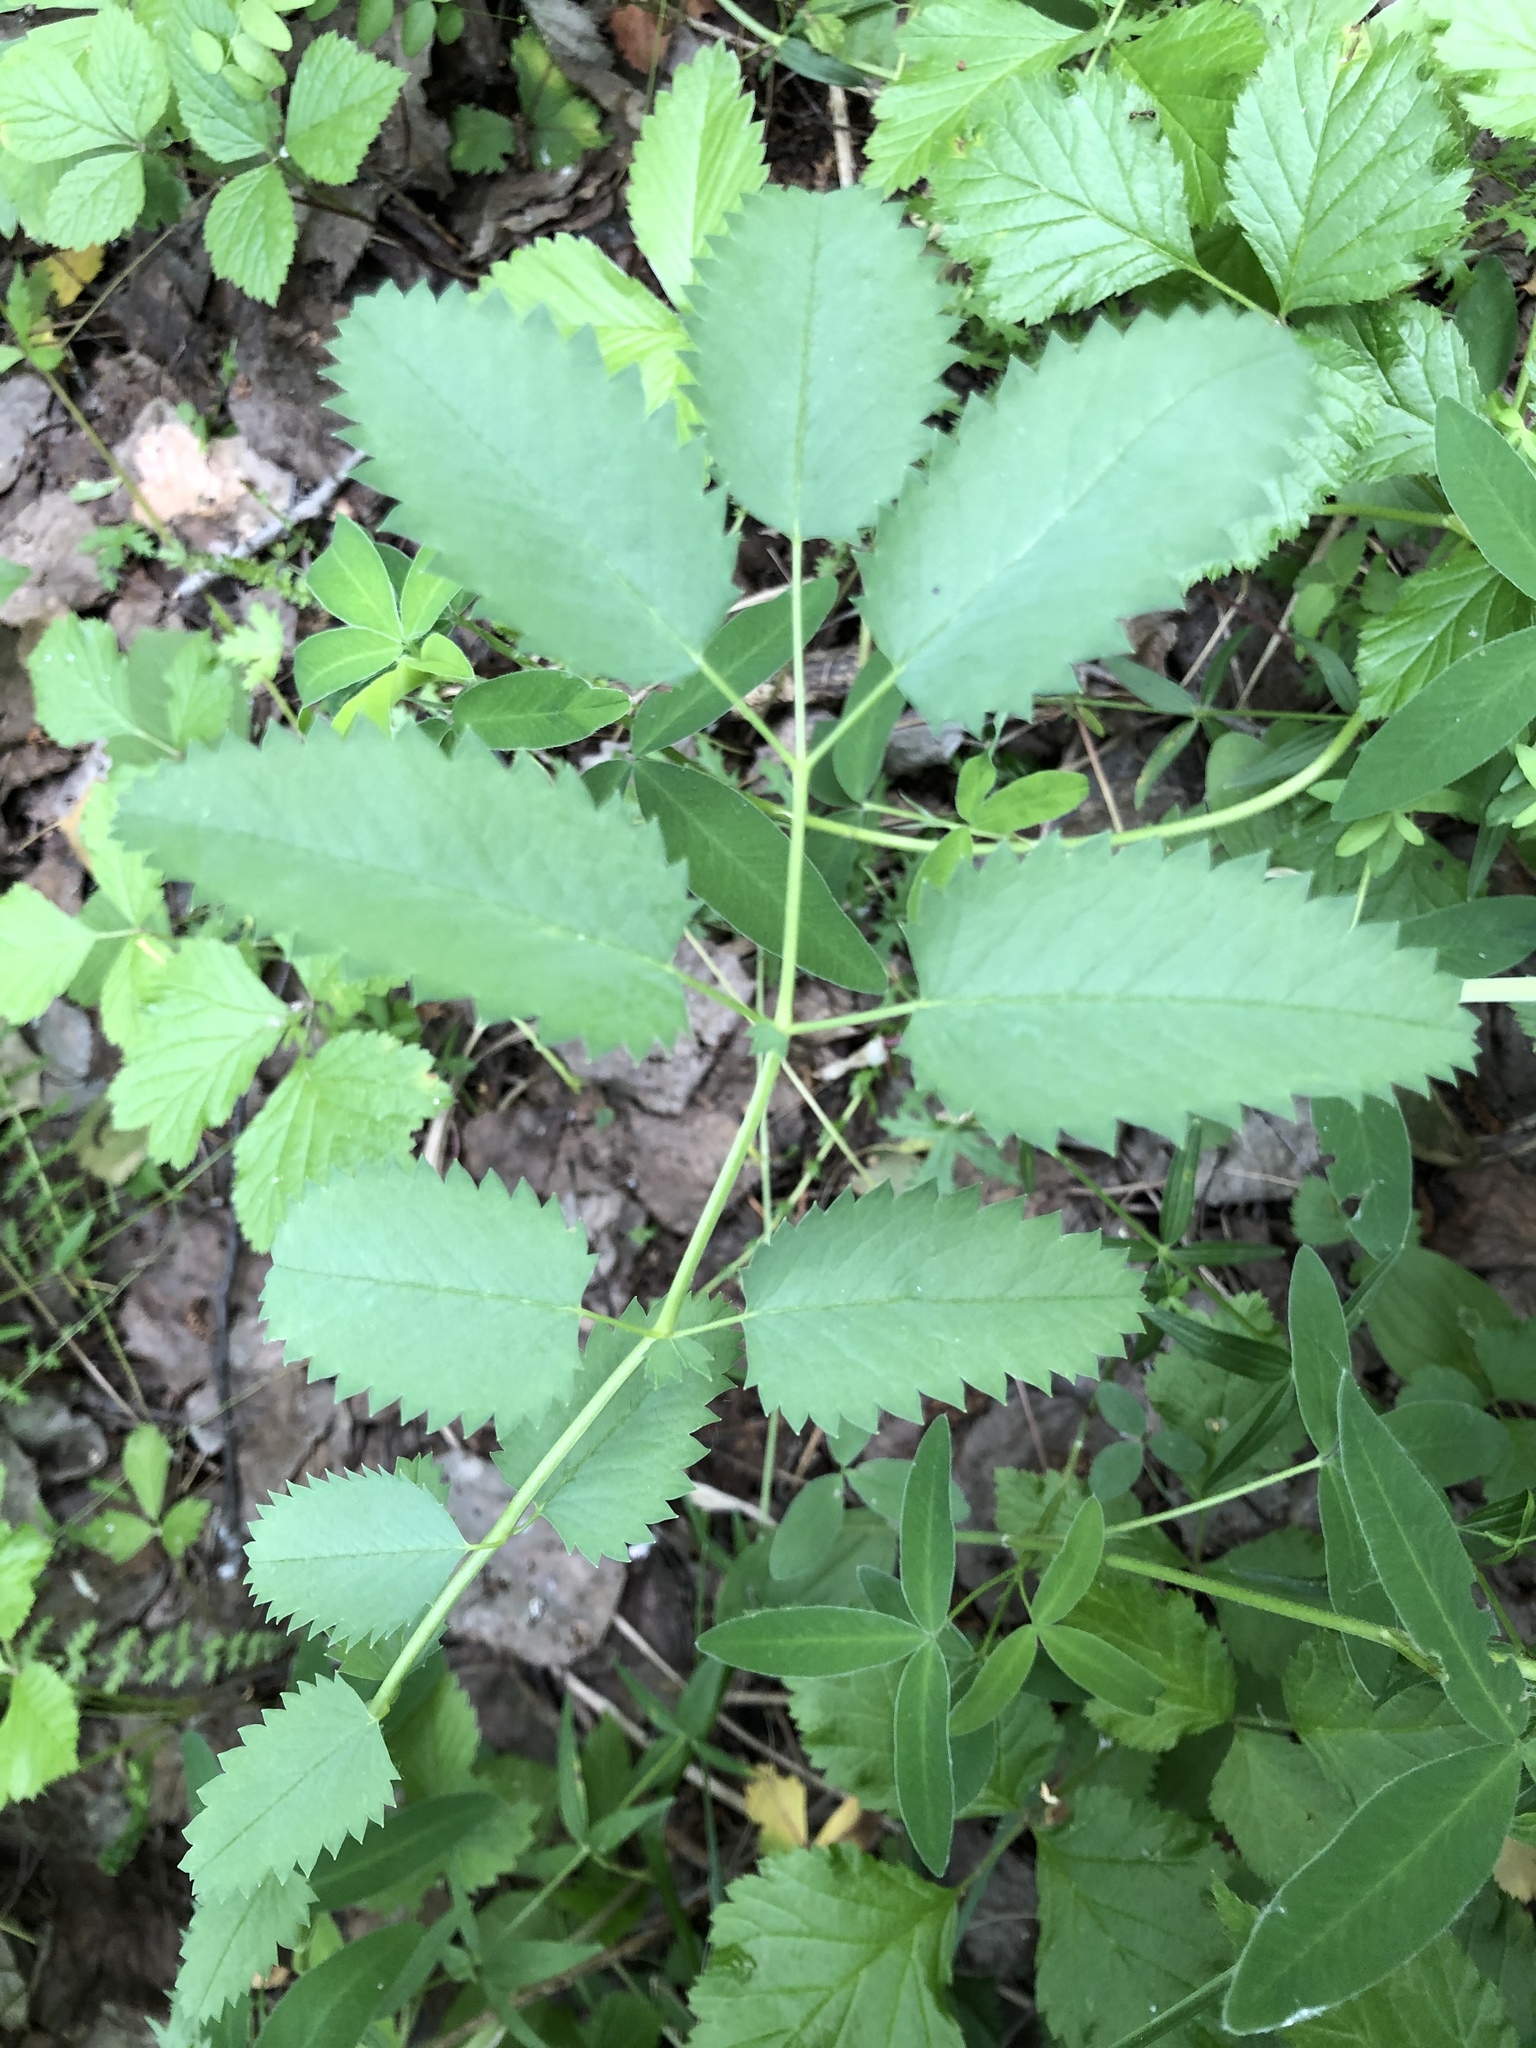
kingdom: Plantae
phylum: Tracheophyta
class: Magnoliopsida
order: Rosales
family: Rosaceae
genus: Sanguisorba
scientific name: Sanguisorba officinalis
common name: Great burnet
